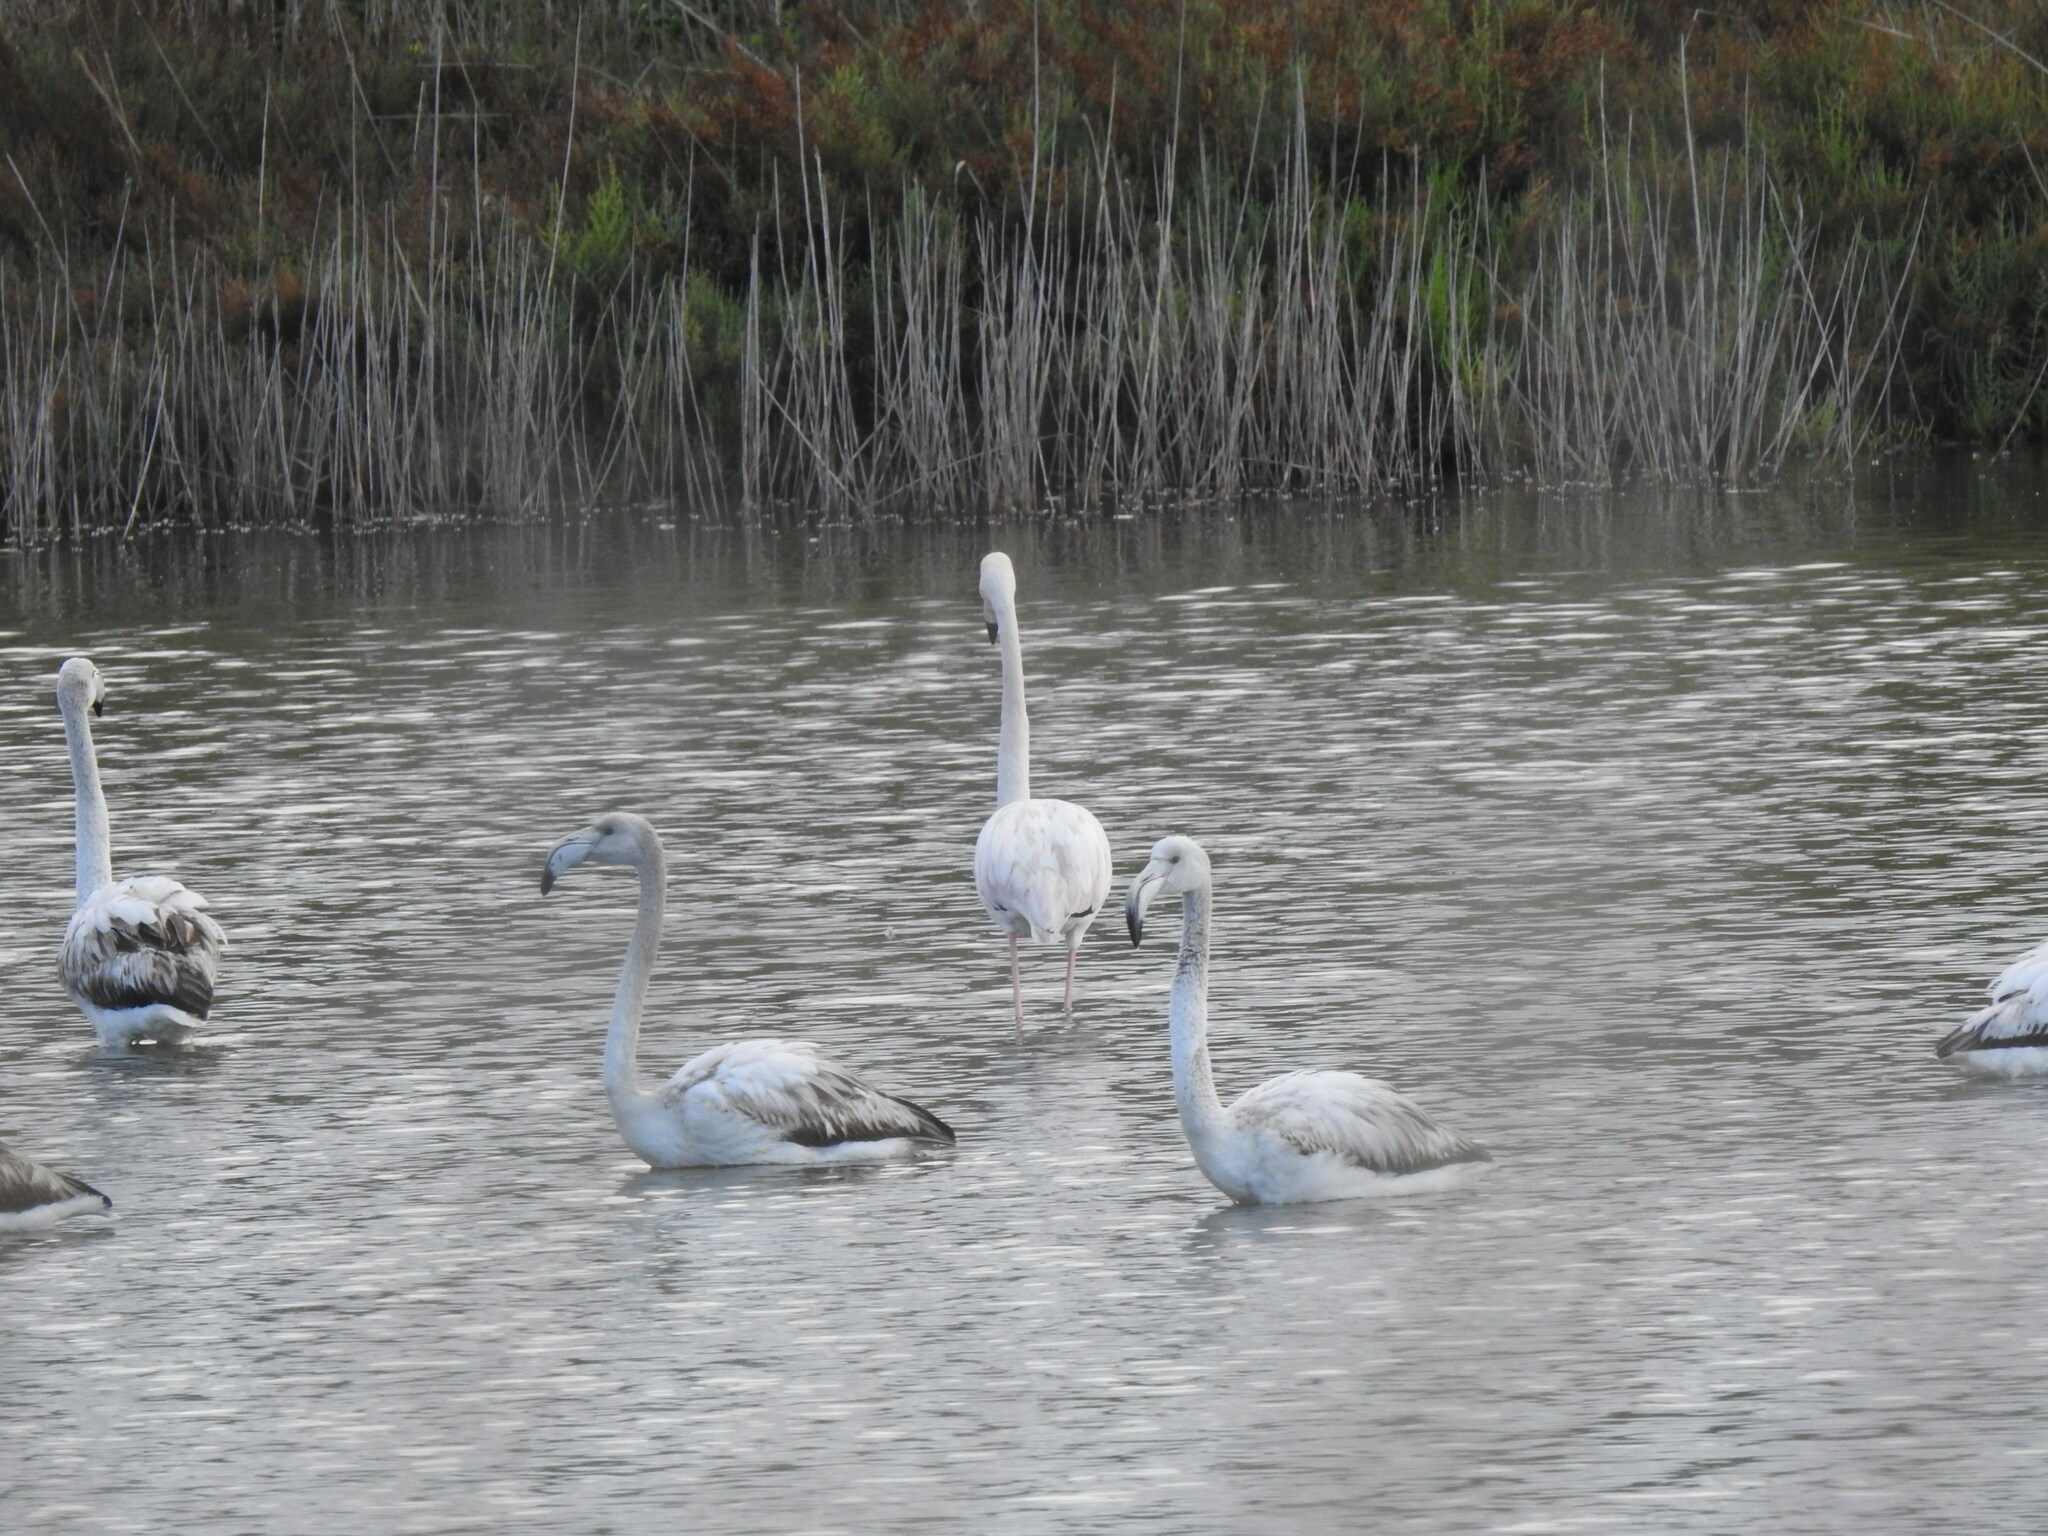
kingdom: Animalia
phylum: Chordata
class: Aves
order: Phoenicopteriformes
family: Phoenicopteridae
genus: Phoenicopterus
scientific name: Phoenicopterus roseus
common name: Greater flamingo
